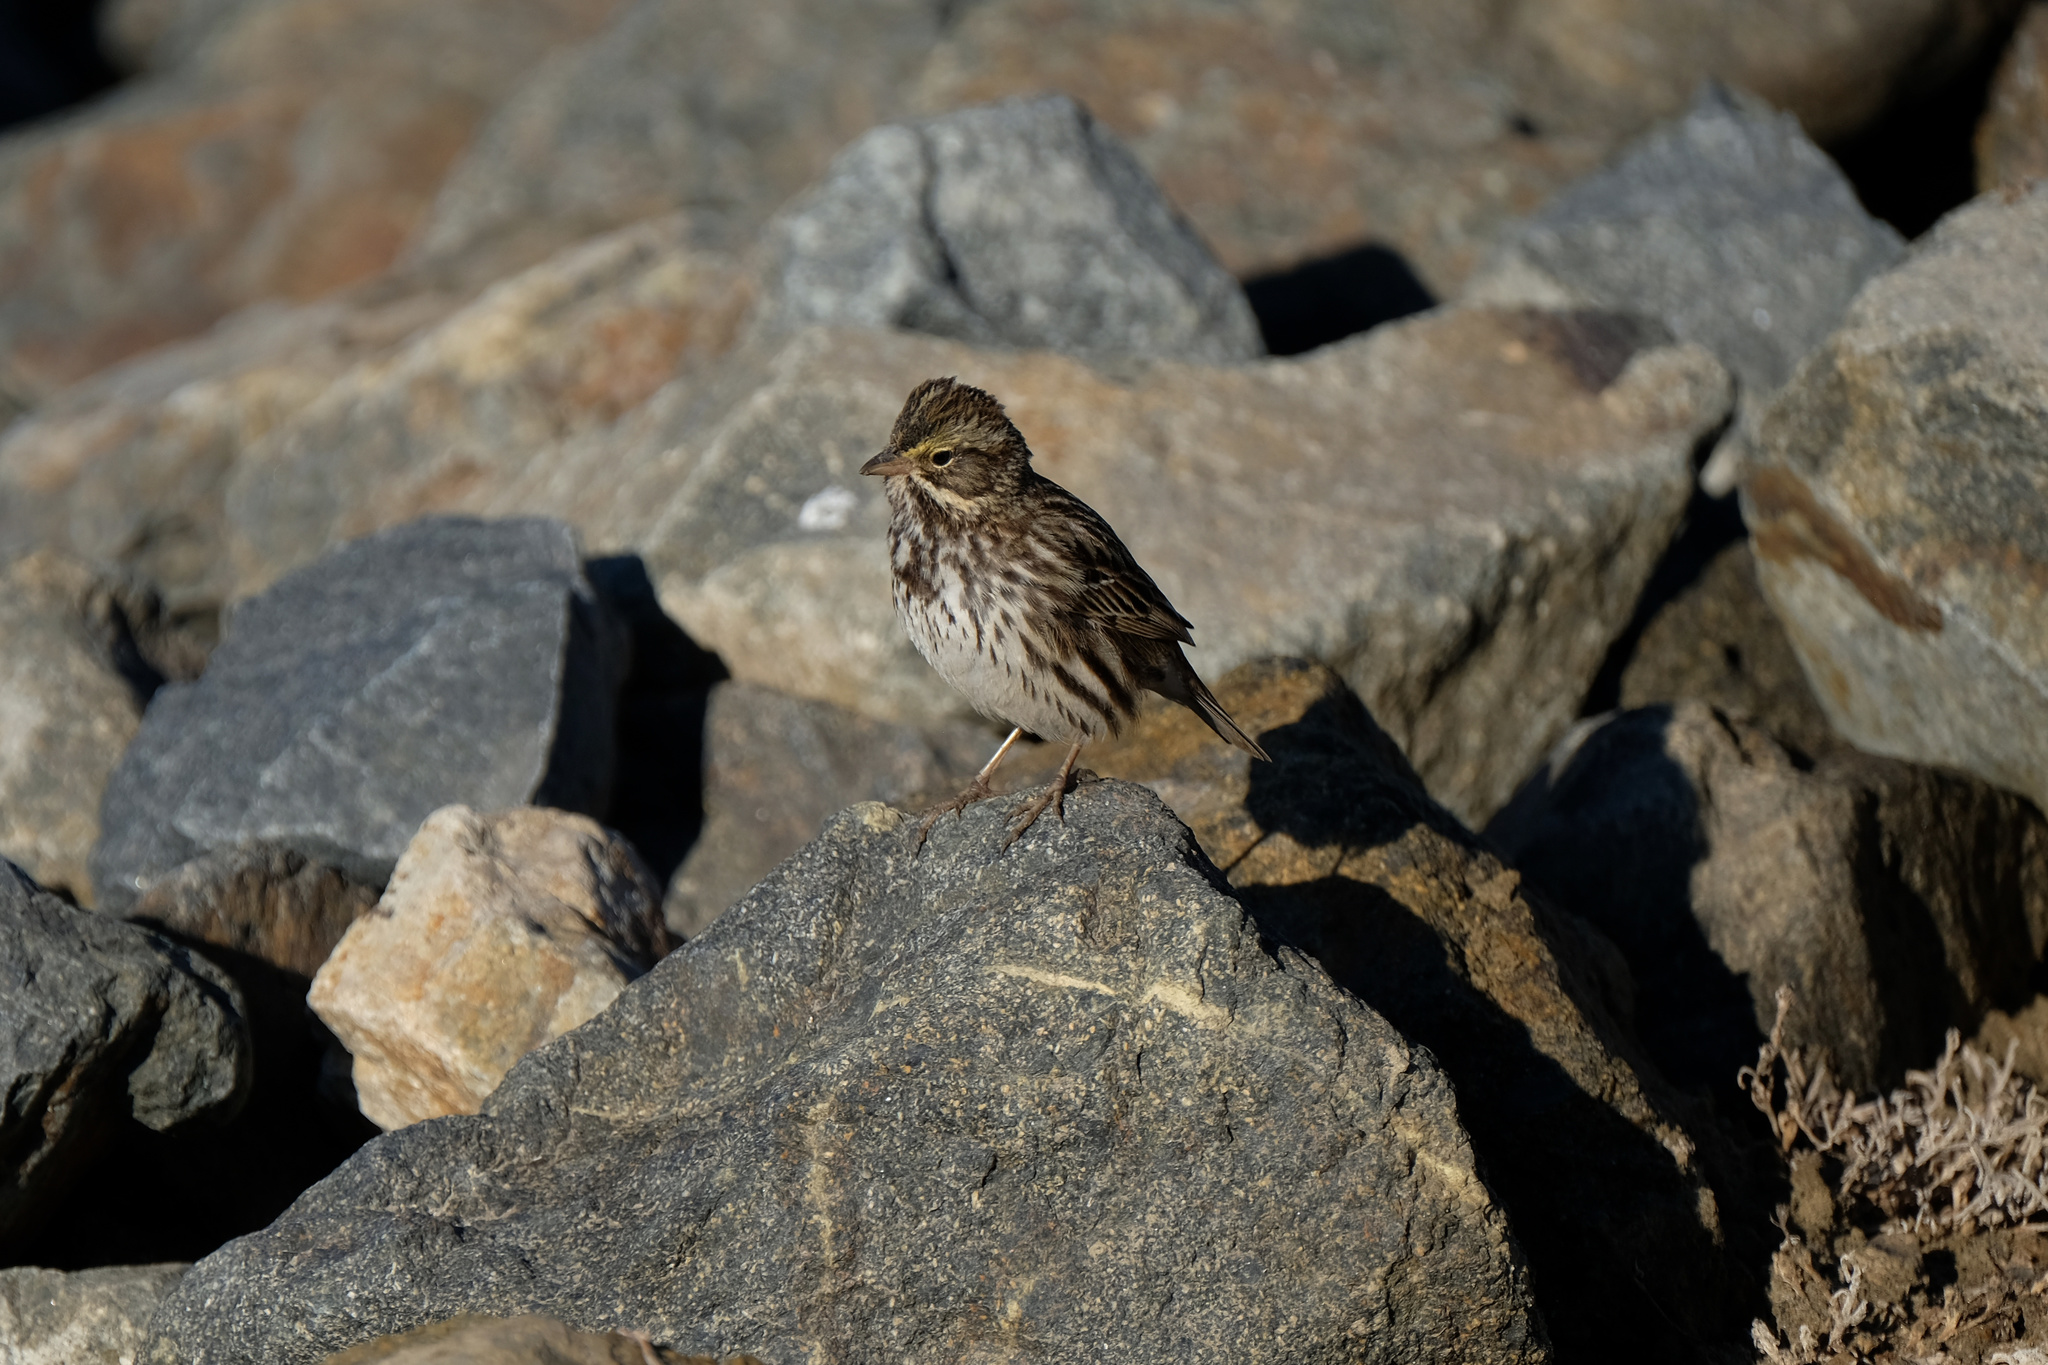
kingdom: Animalia
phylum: Chordata
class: Aves
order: Passeriformes
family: Passerellidae
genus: Passerculus
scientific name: Passerculus sandwichensis
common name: Savannah sparrow
